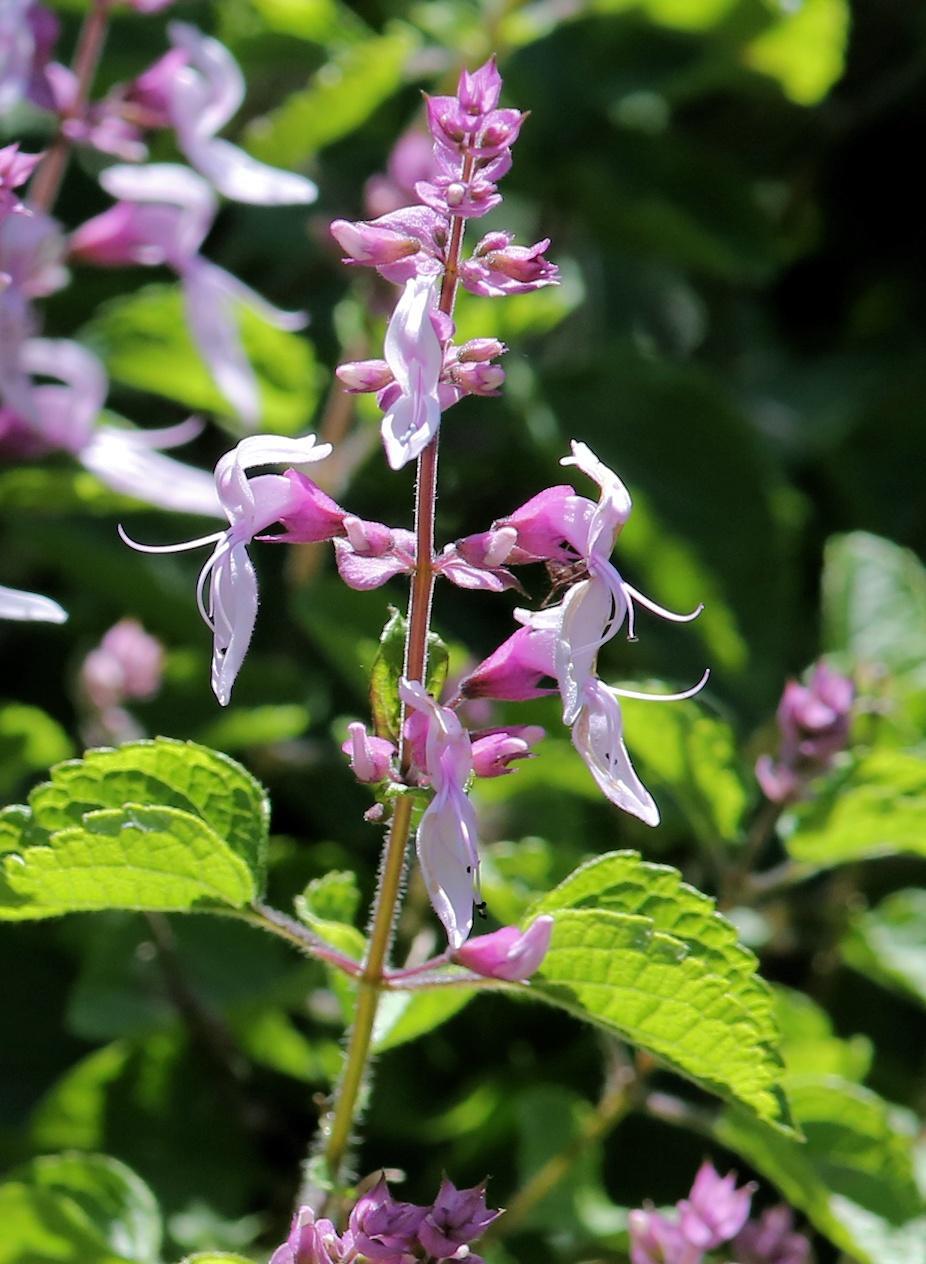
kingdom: Plantae
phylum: Tracheophyta
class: Magnoliopsida
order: Lamiales
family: Lamiaceae
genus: Ocimum
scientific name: Ocimum labiatum
